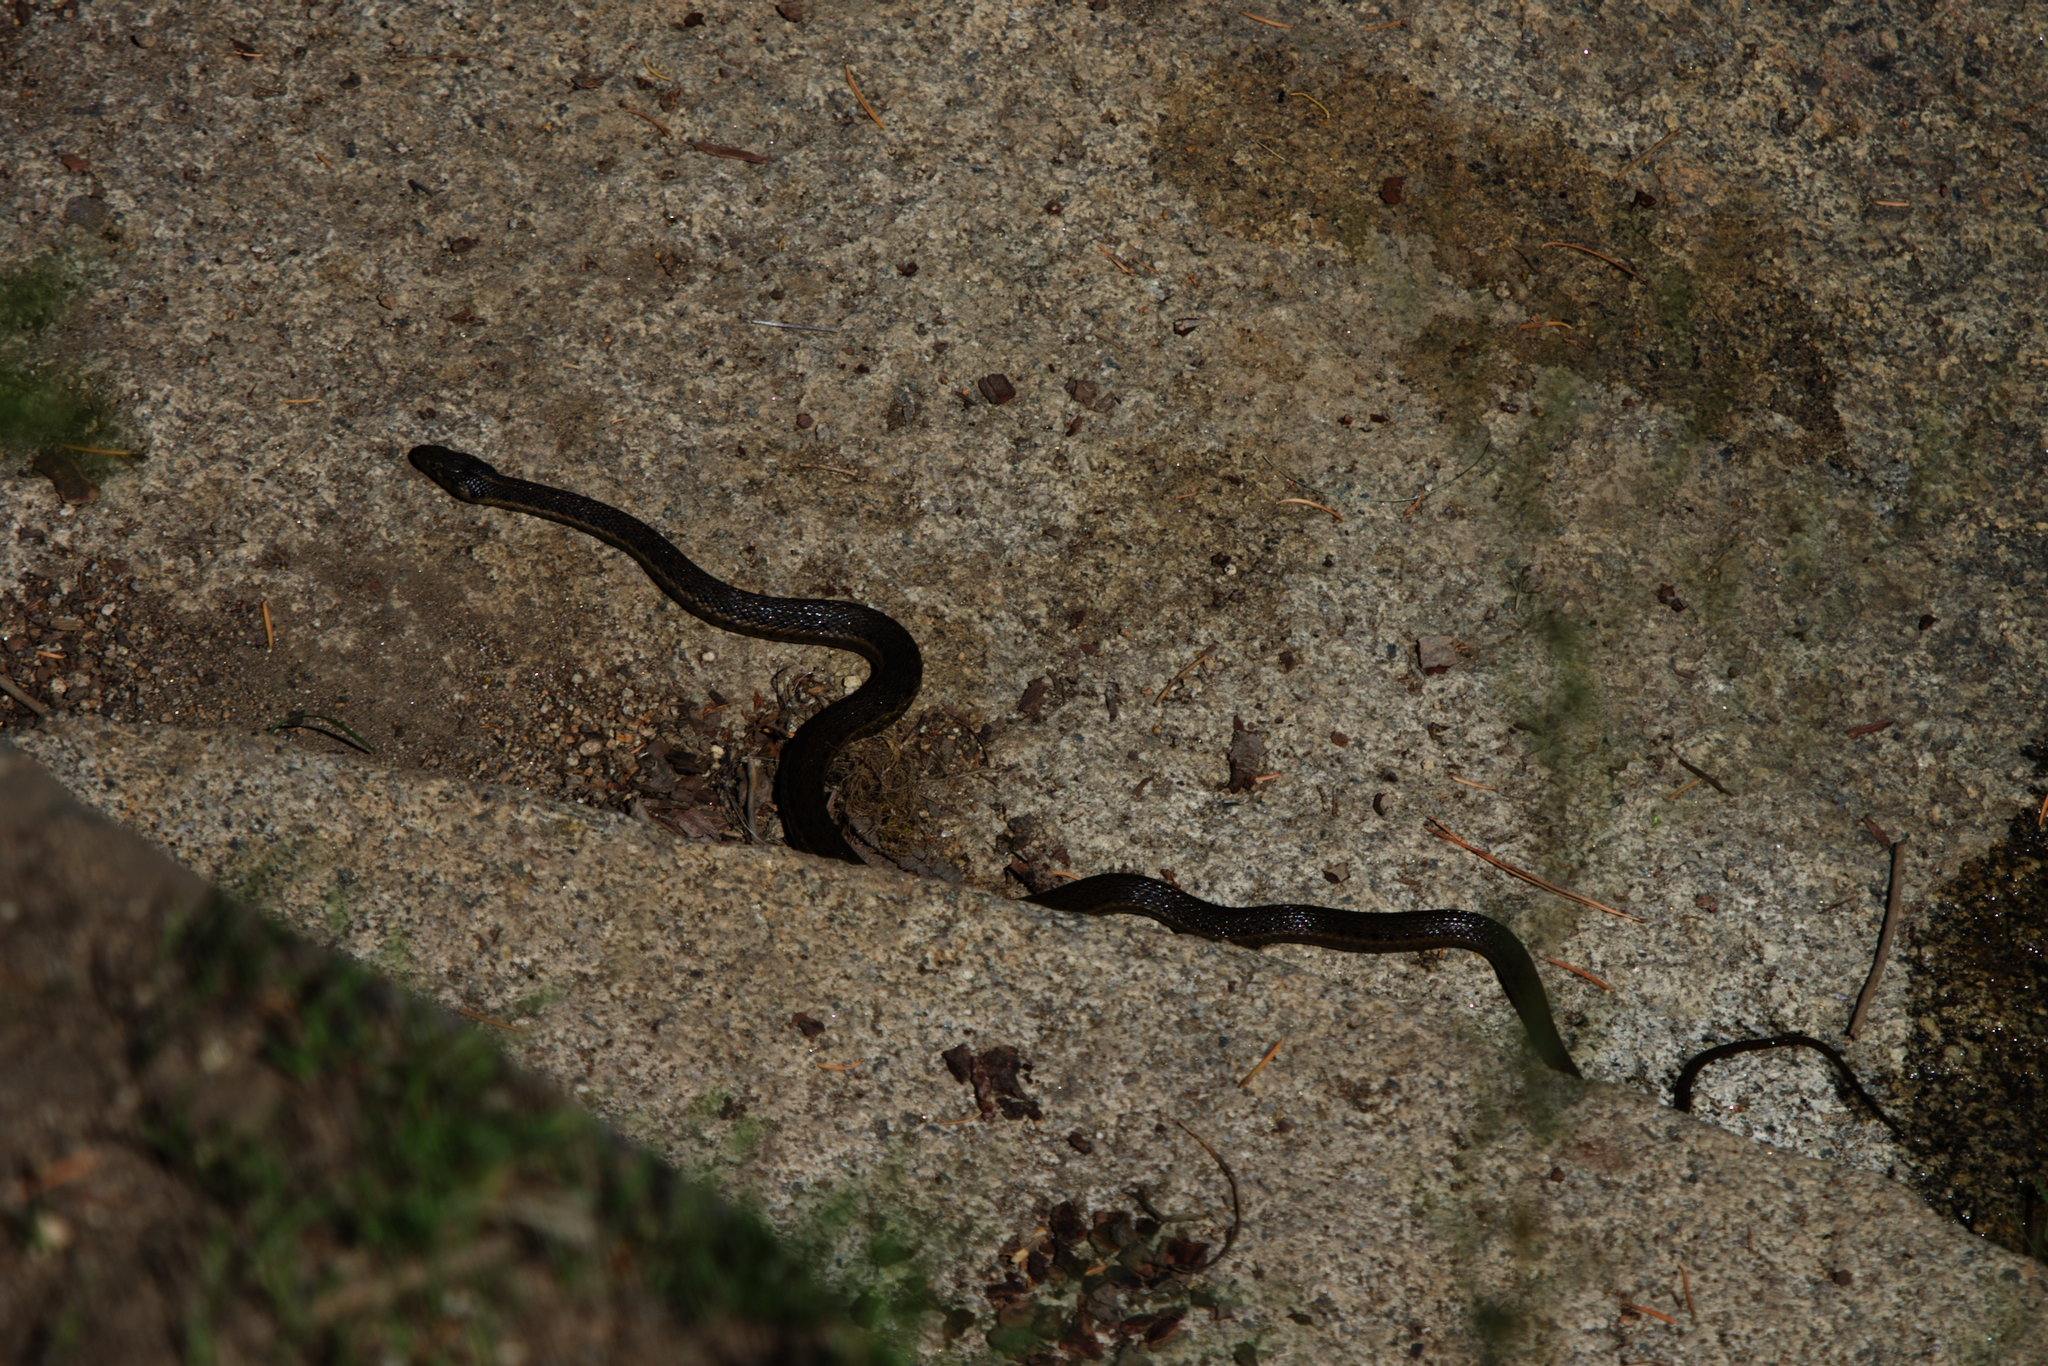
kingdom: Animalia
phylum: Chordata
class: Squamata
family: Colubridae
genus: Thamnophis
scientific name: Thamnophis couchii
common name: Western aquatic garter snake
